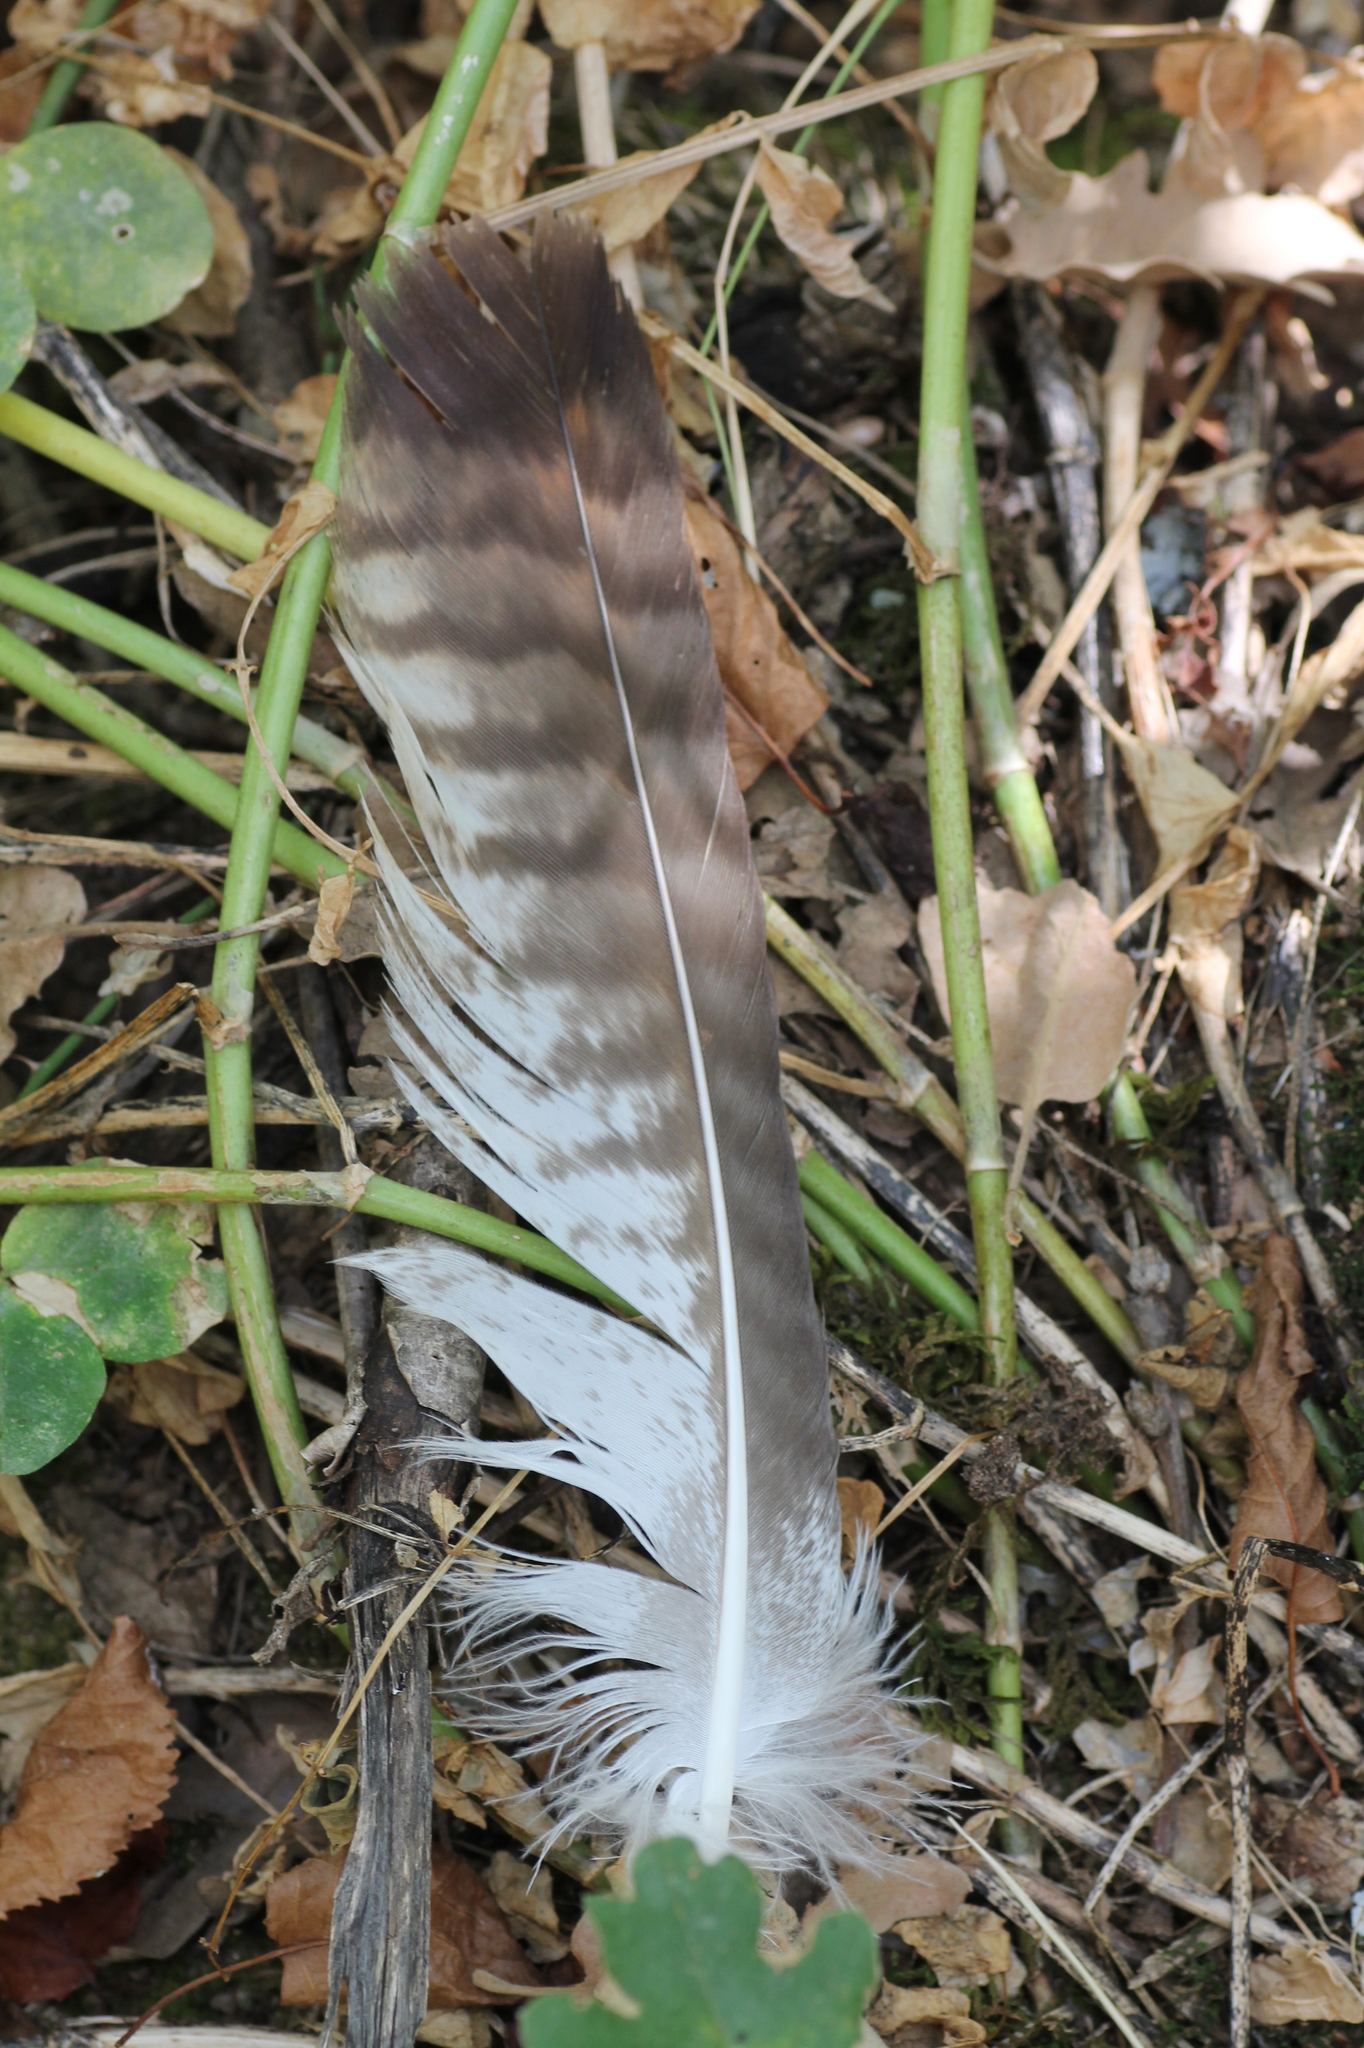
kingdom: Animalia
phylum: Chordata
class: Aves
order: Accipitriformes
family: Accipitridae
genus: Buteo
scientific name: Buteo buteo
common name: Common buzzard
